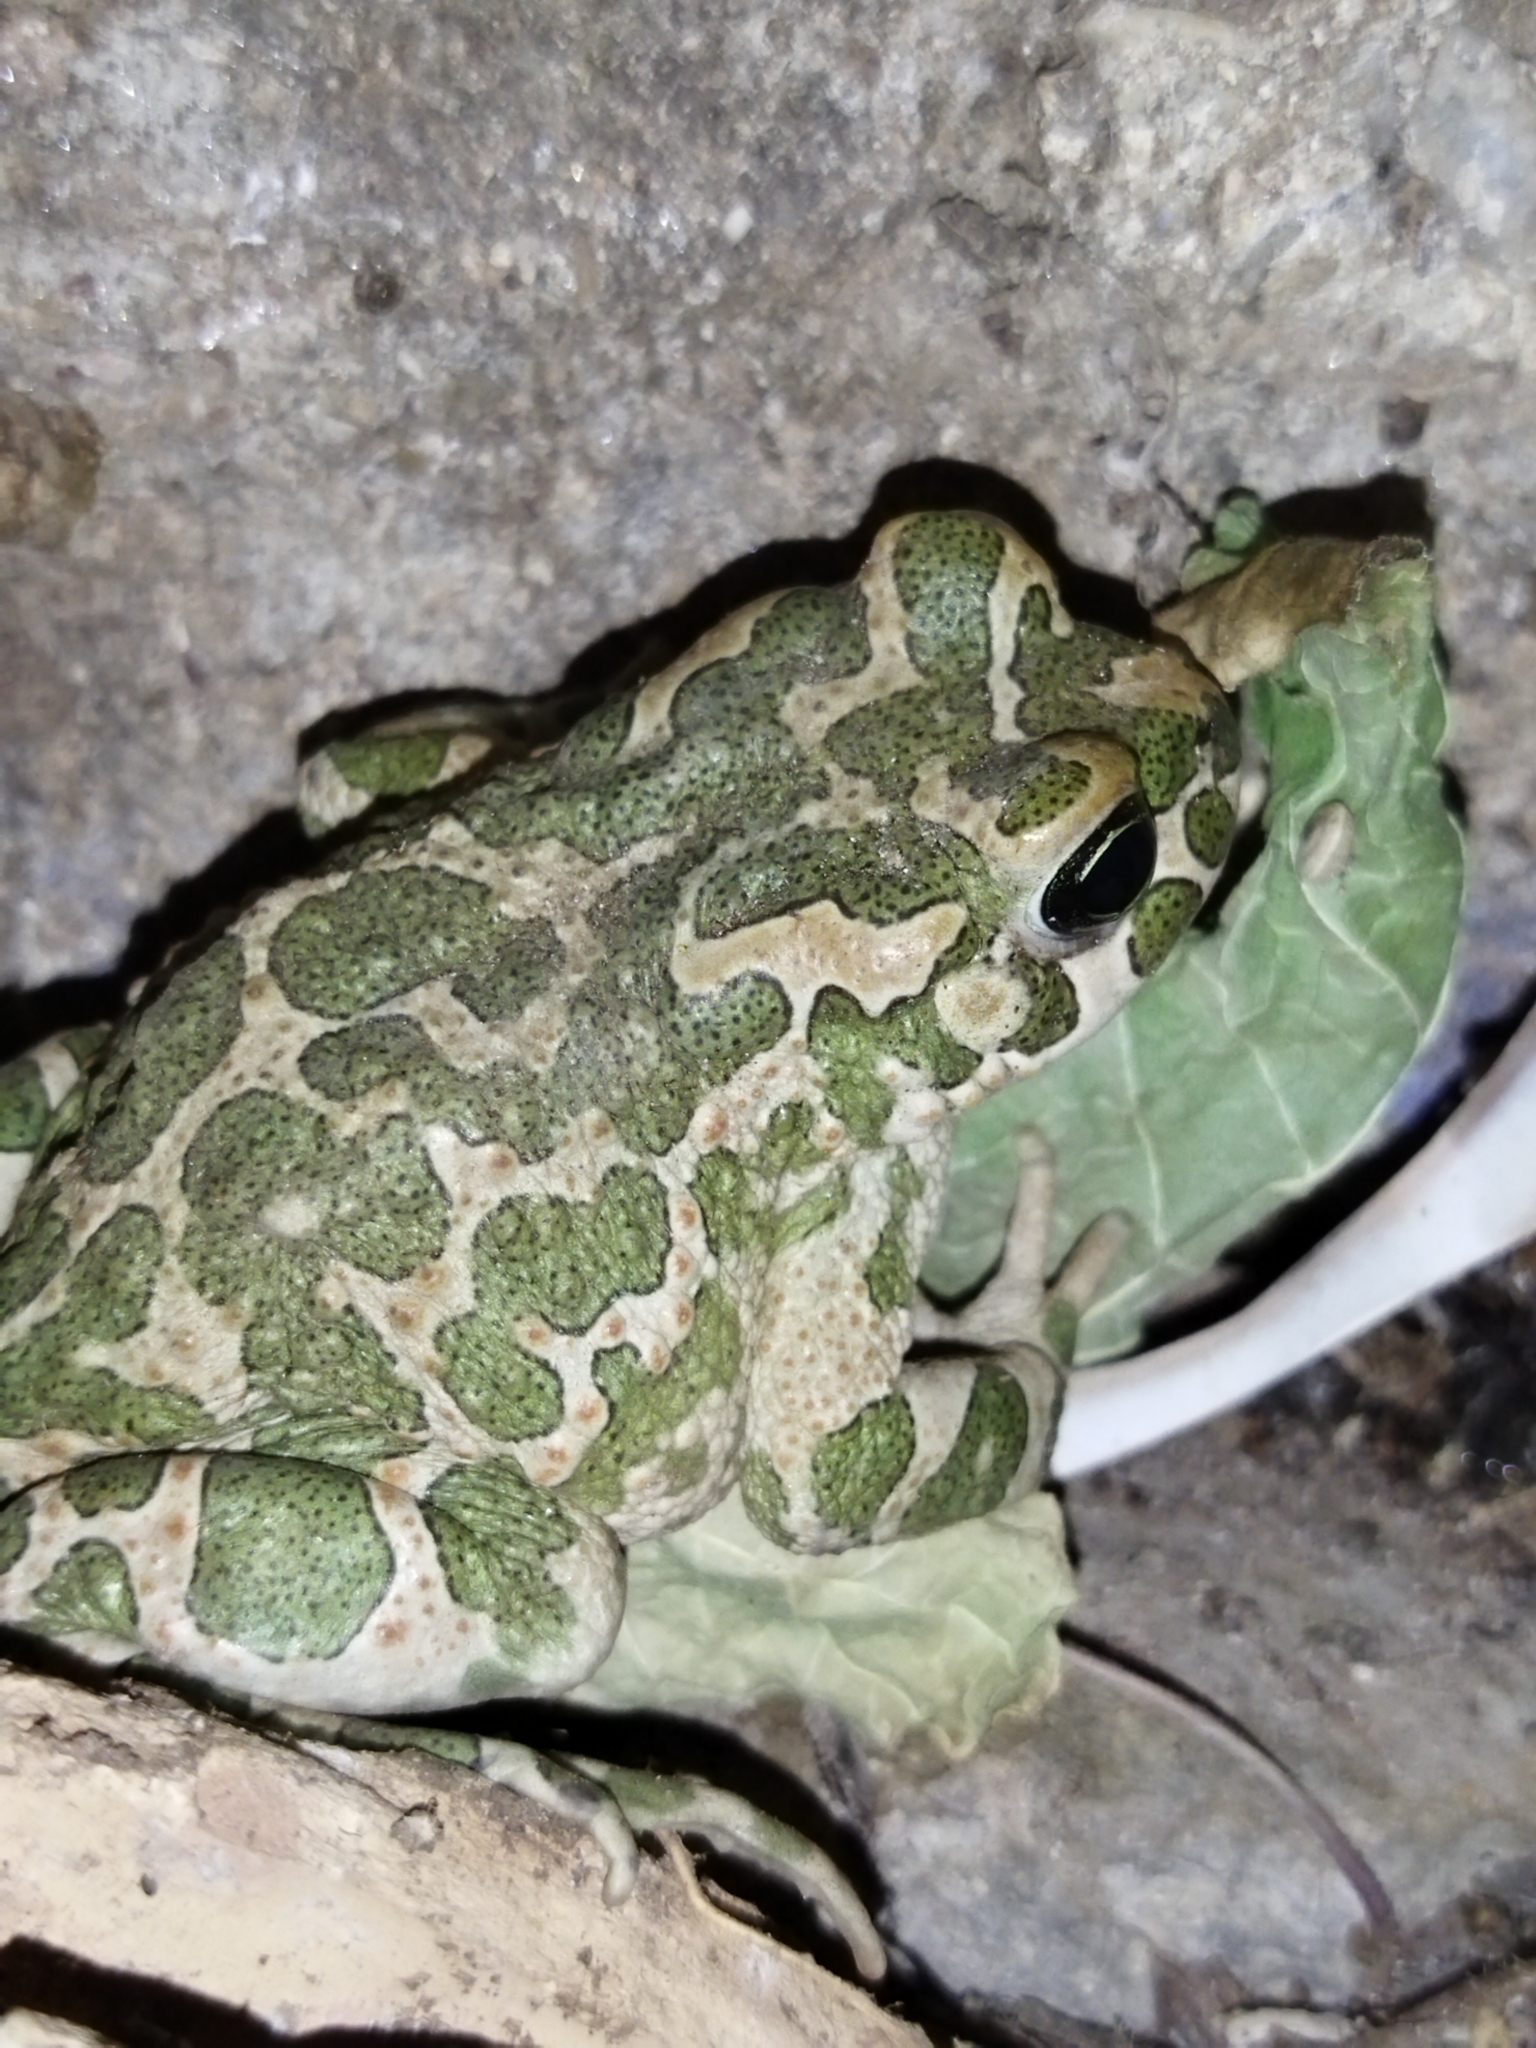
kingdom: Animalia
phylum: Chordata
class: Amphibia
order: Anura
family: Bufonidae
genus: Bufotes
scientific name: Bufotes viridis
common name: European green toad
